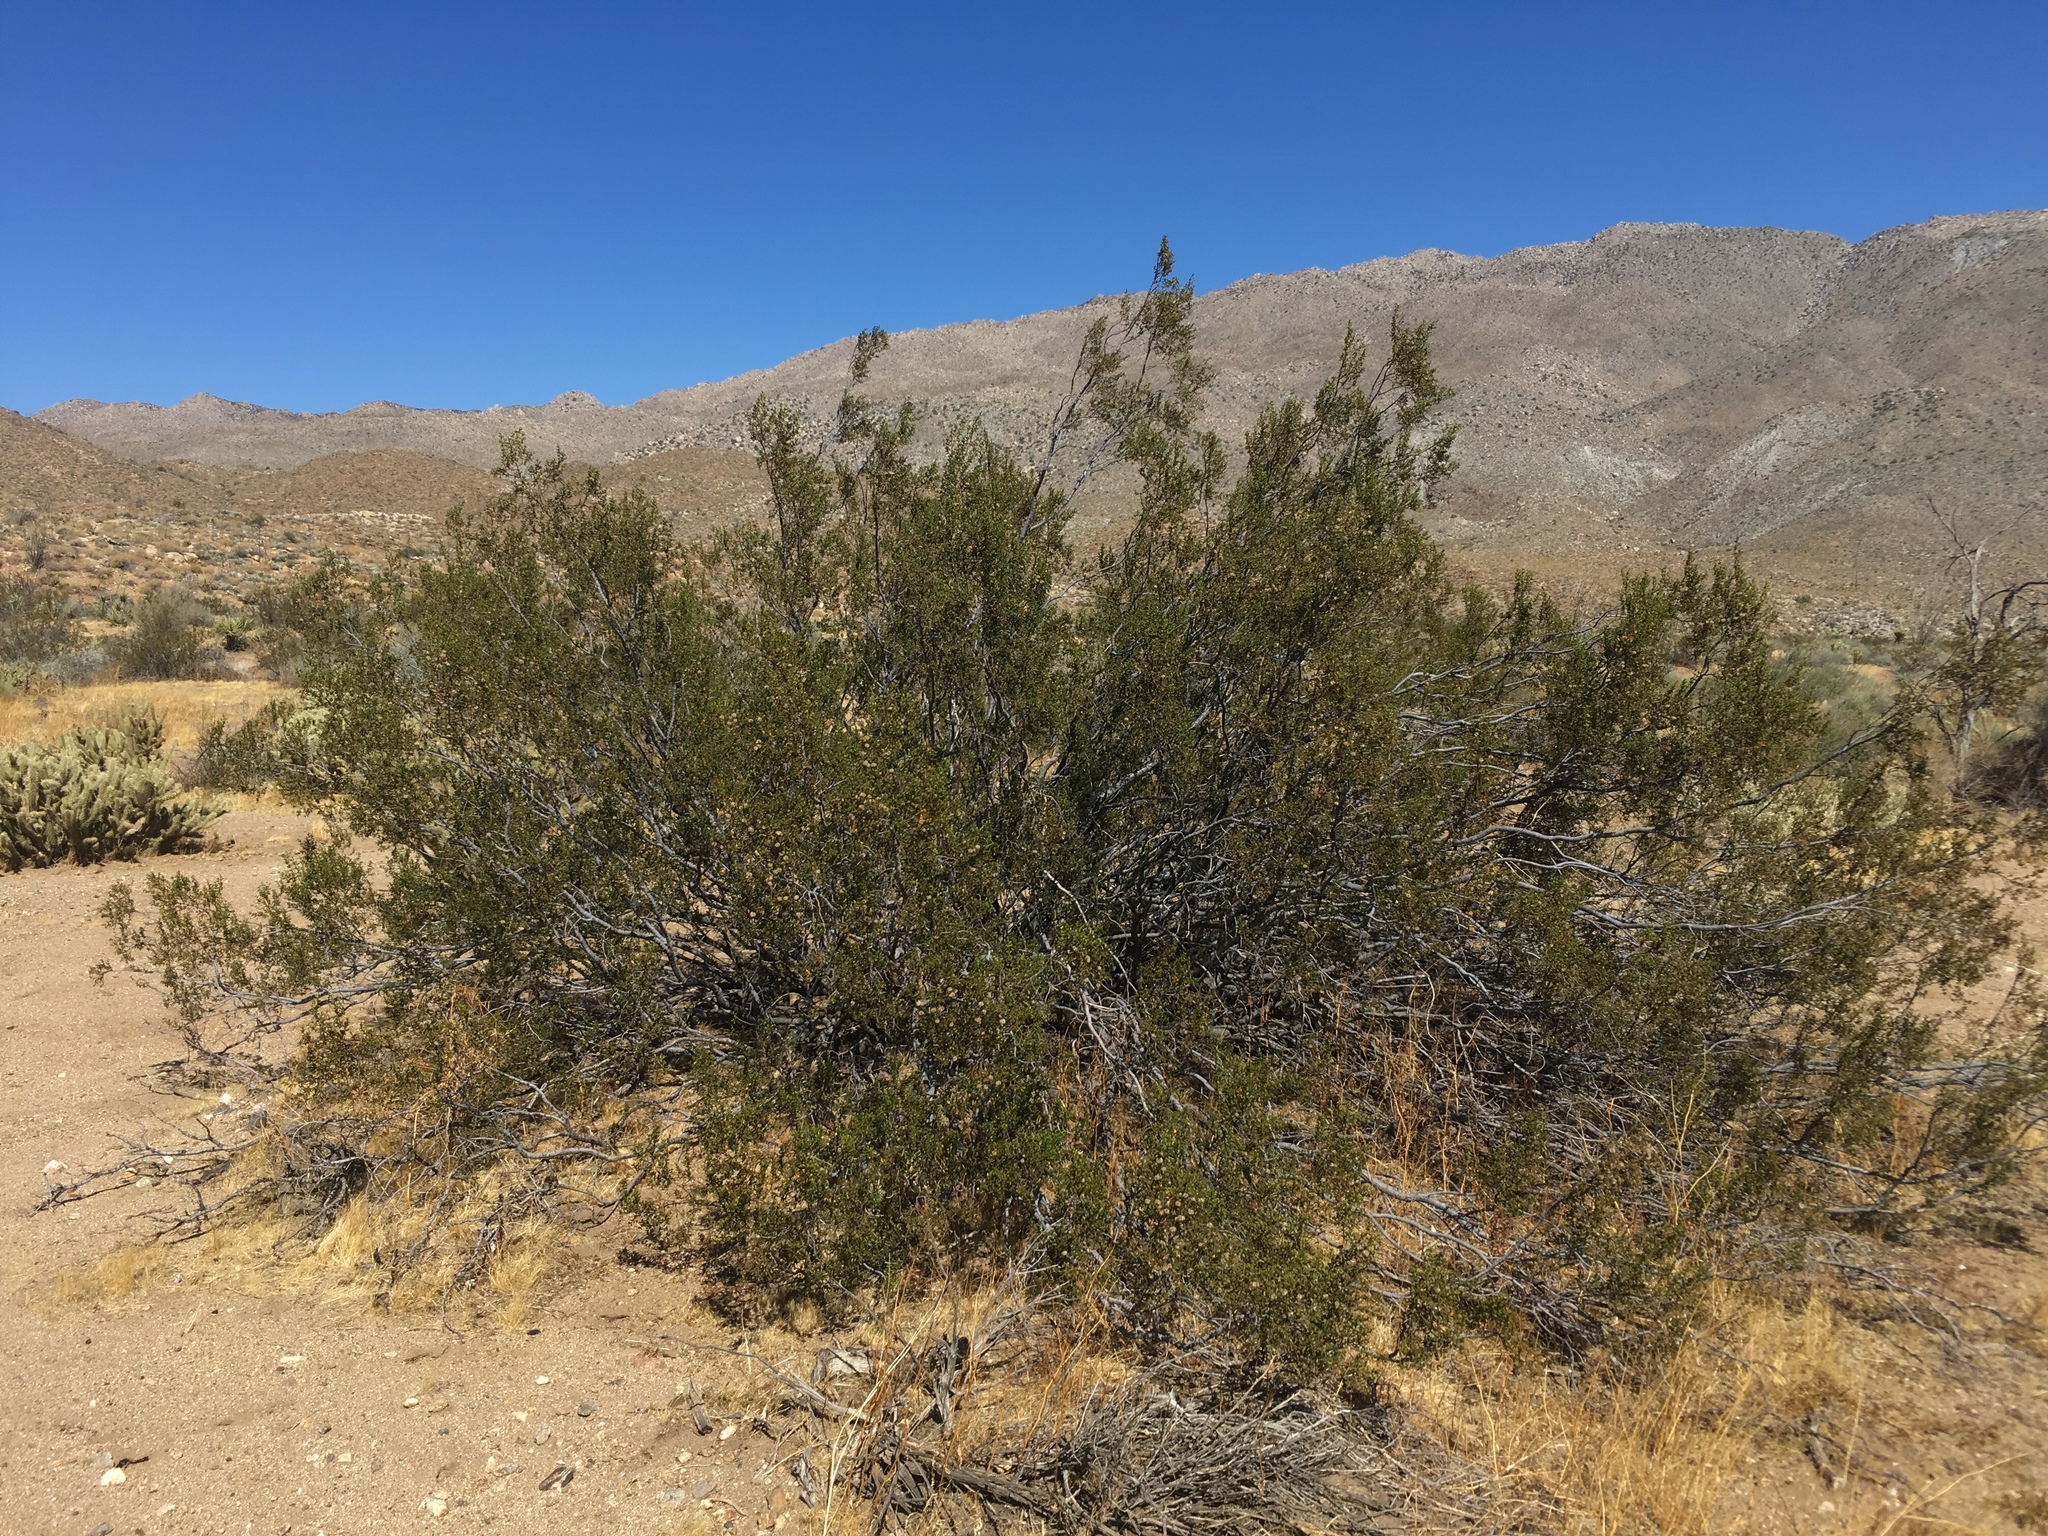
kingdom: Plantae
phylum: Tracheophyta
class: Magnoliopsida
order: Zygophyllales
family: Zygophyllaceae
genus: Larrea
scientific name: Larrea tridentata
